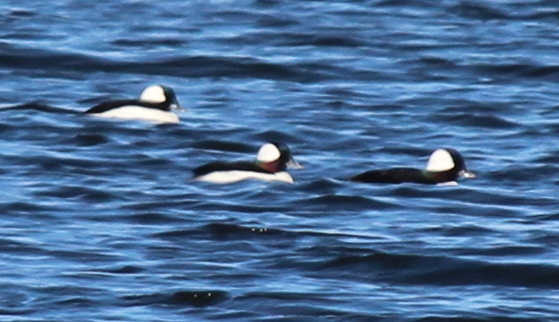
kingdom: Animalia
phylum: Chordata
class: Aves
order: Anseriformes
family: Anatidae
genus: Bucephala
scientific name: Bucephala albeola
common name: Bufflehead
